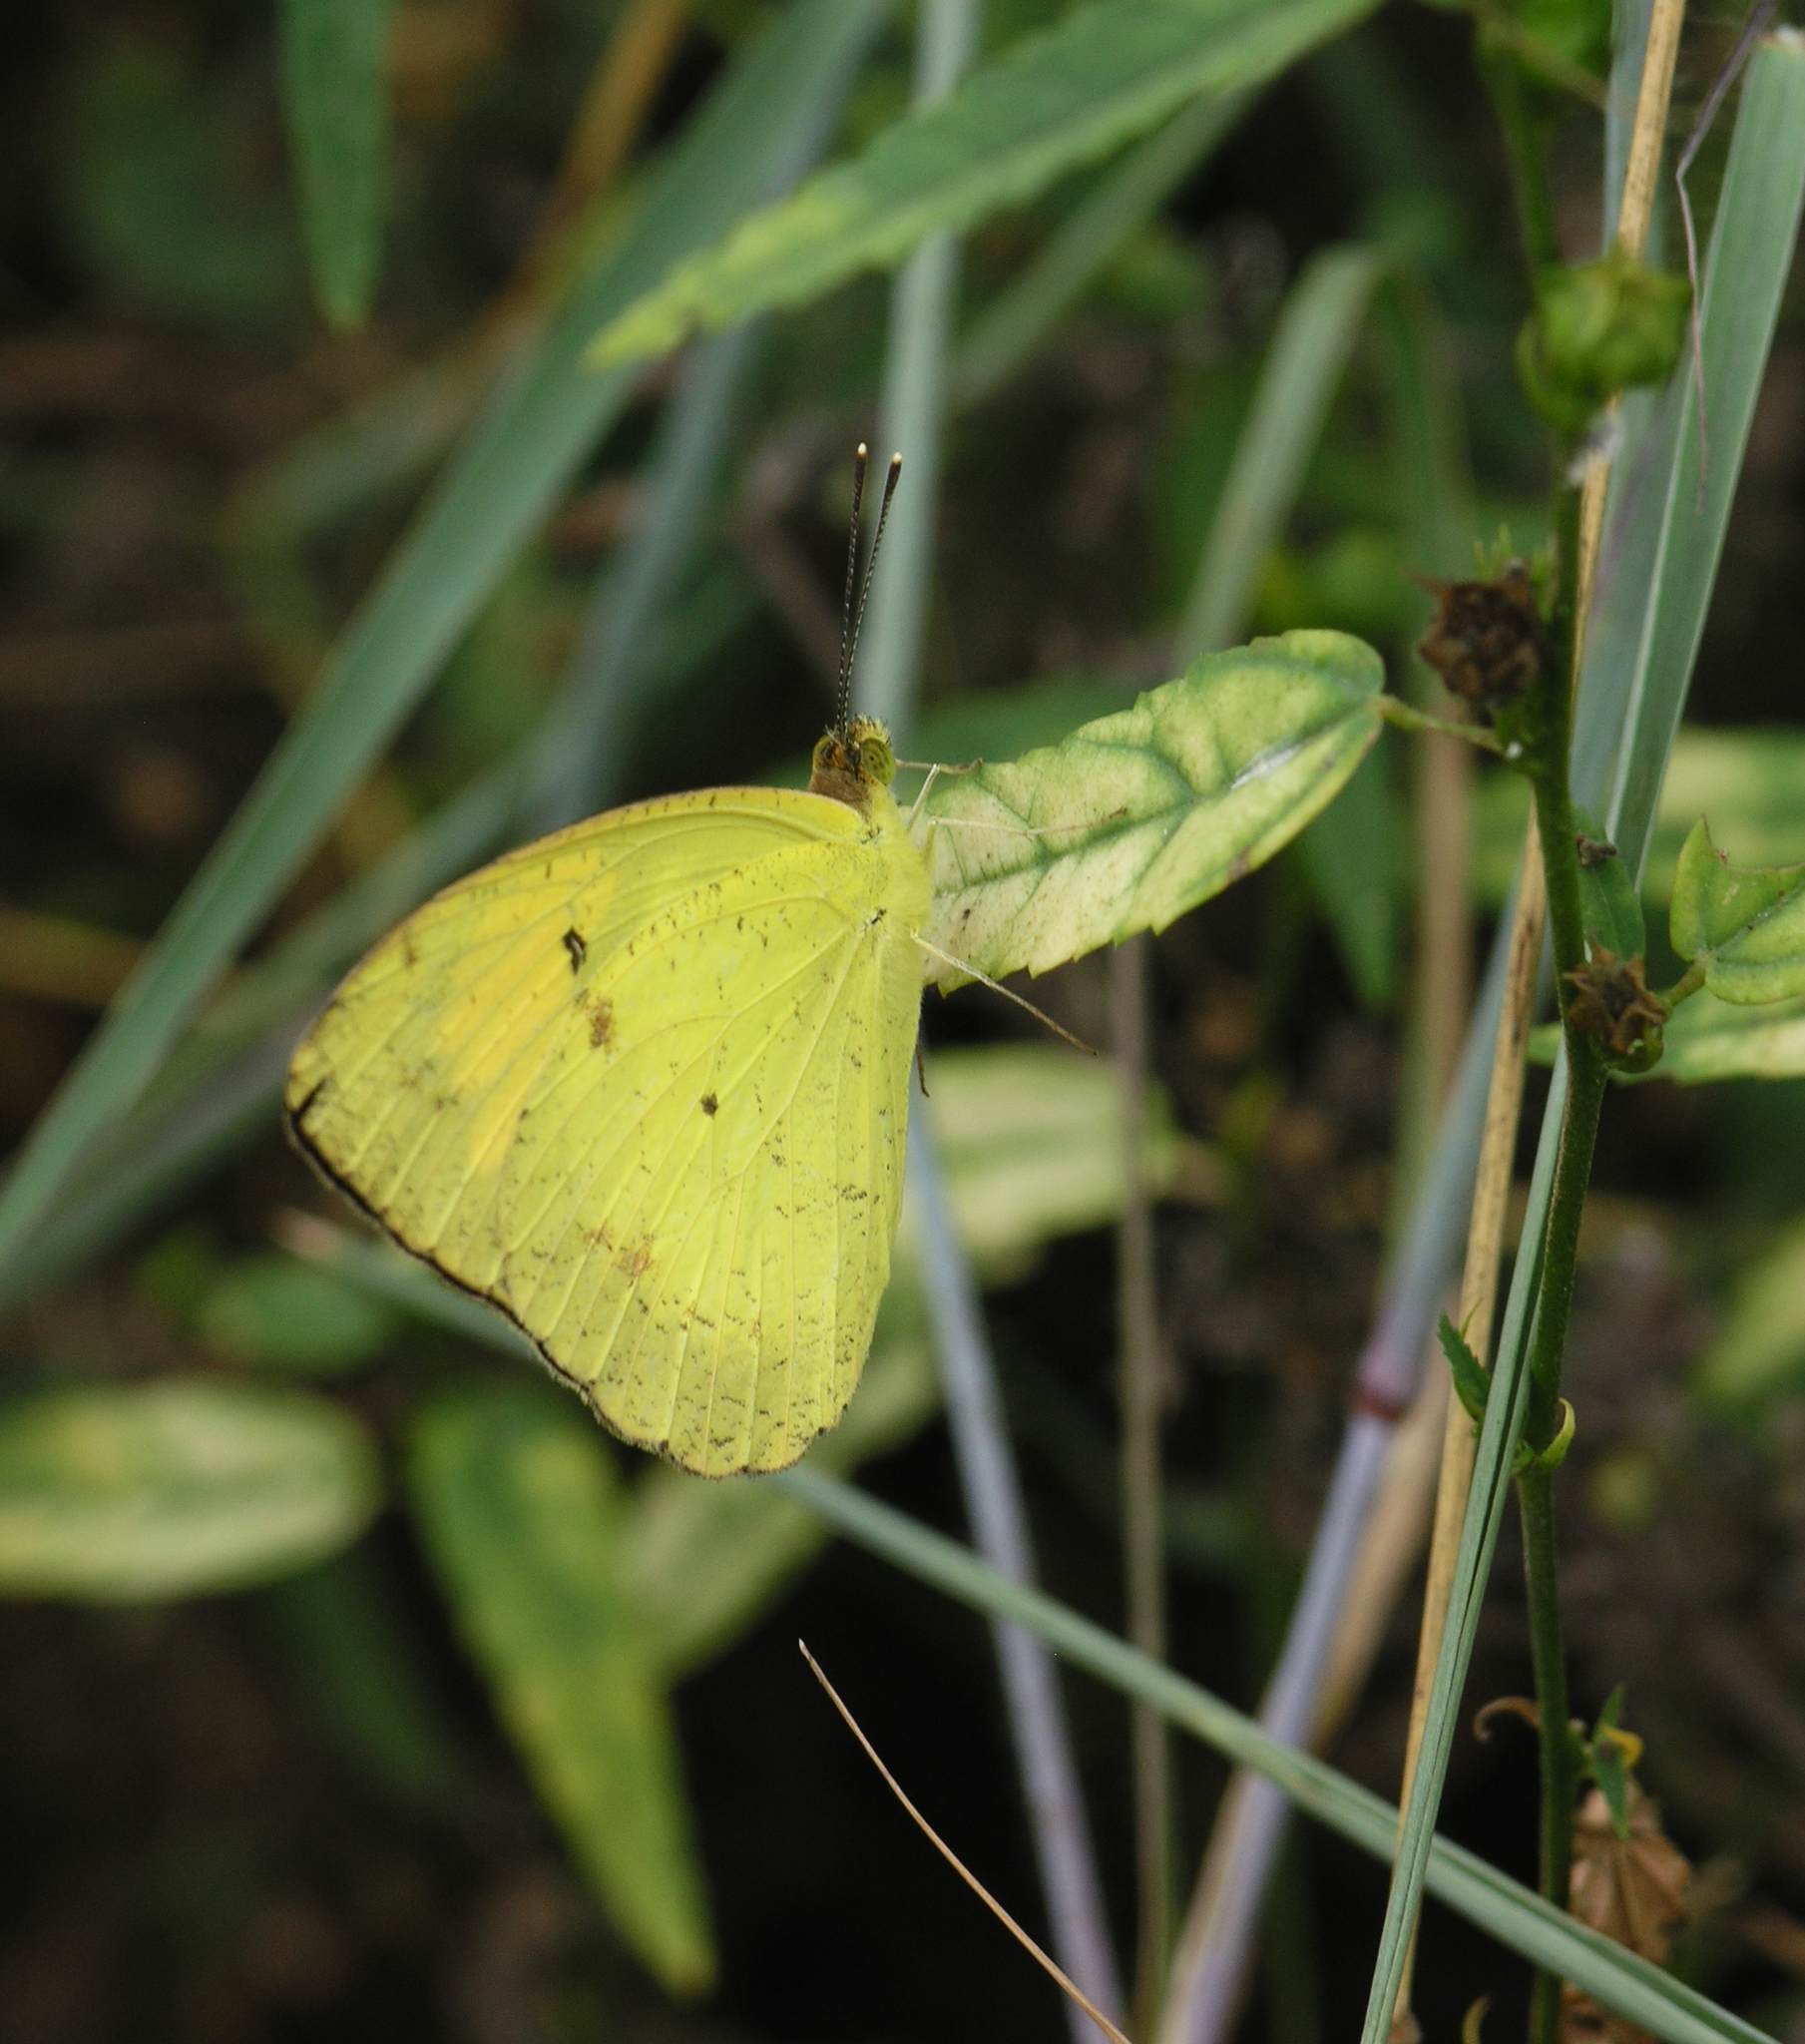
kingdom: Animalia
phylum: Arthropoda
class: Insecta
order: Lepidoptera
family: Pieridae
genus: Ixias
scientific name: Ixias pyrene
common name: Yellow orange tip
